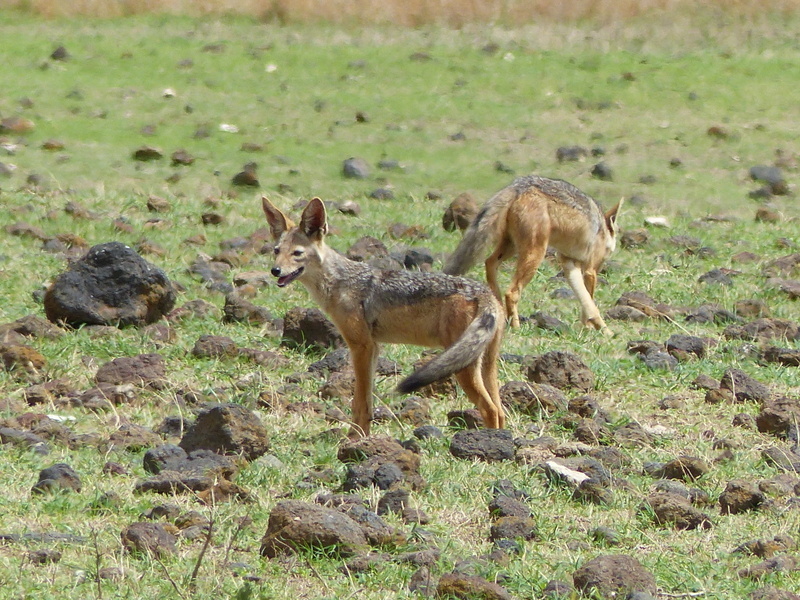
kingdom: Animalia
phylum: Chordata
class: Mammalia
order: Carnivora
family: Canidae
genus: Lupulella
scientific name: Lupulella
